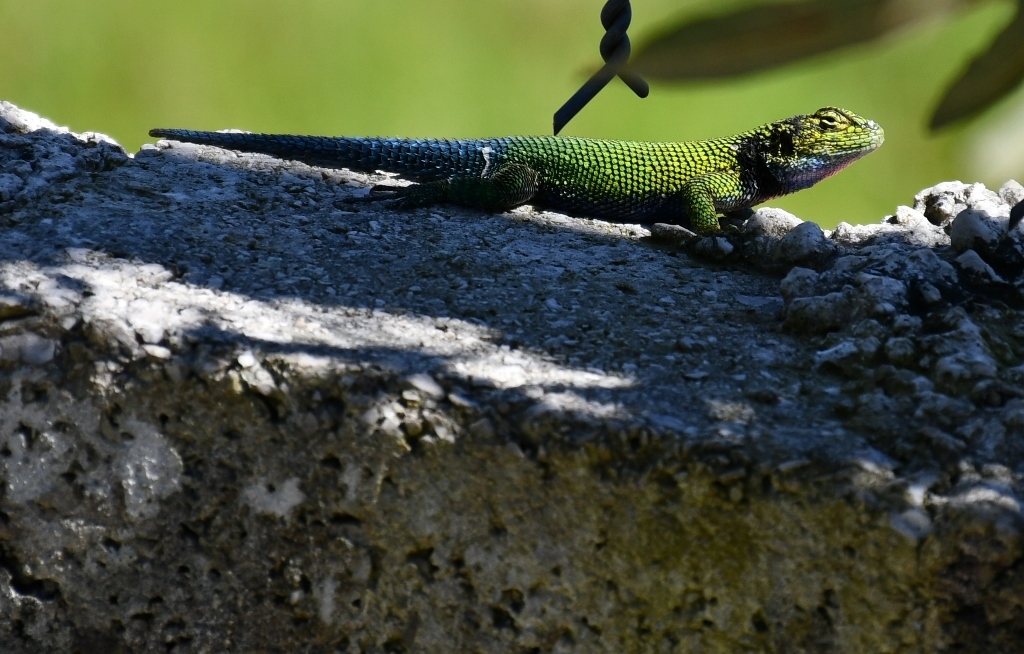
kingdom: Animalia
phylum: Chordata
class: Squamata
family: Phrynosomatidae
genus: Sceloporus
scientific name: Sceloporus taeniocnemis
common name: Guatemalan emerald spiny lizard
